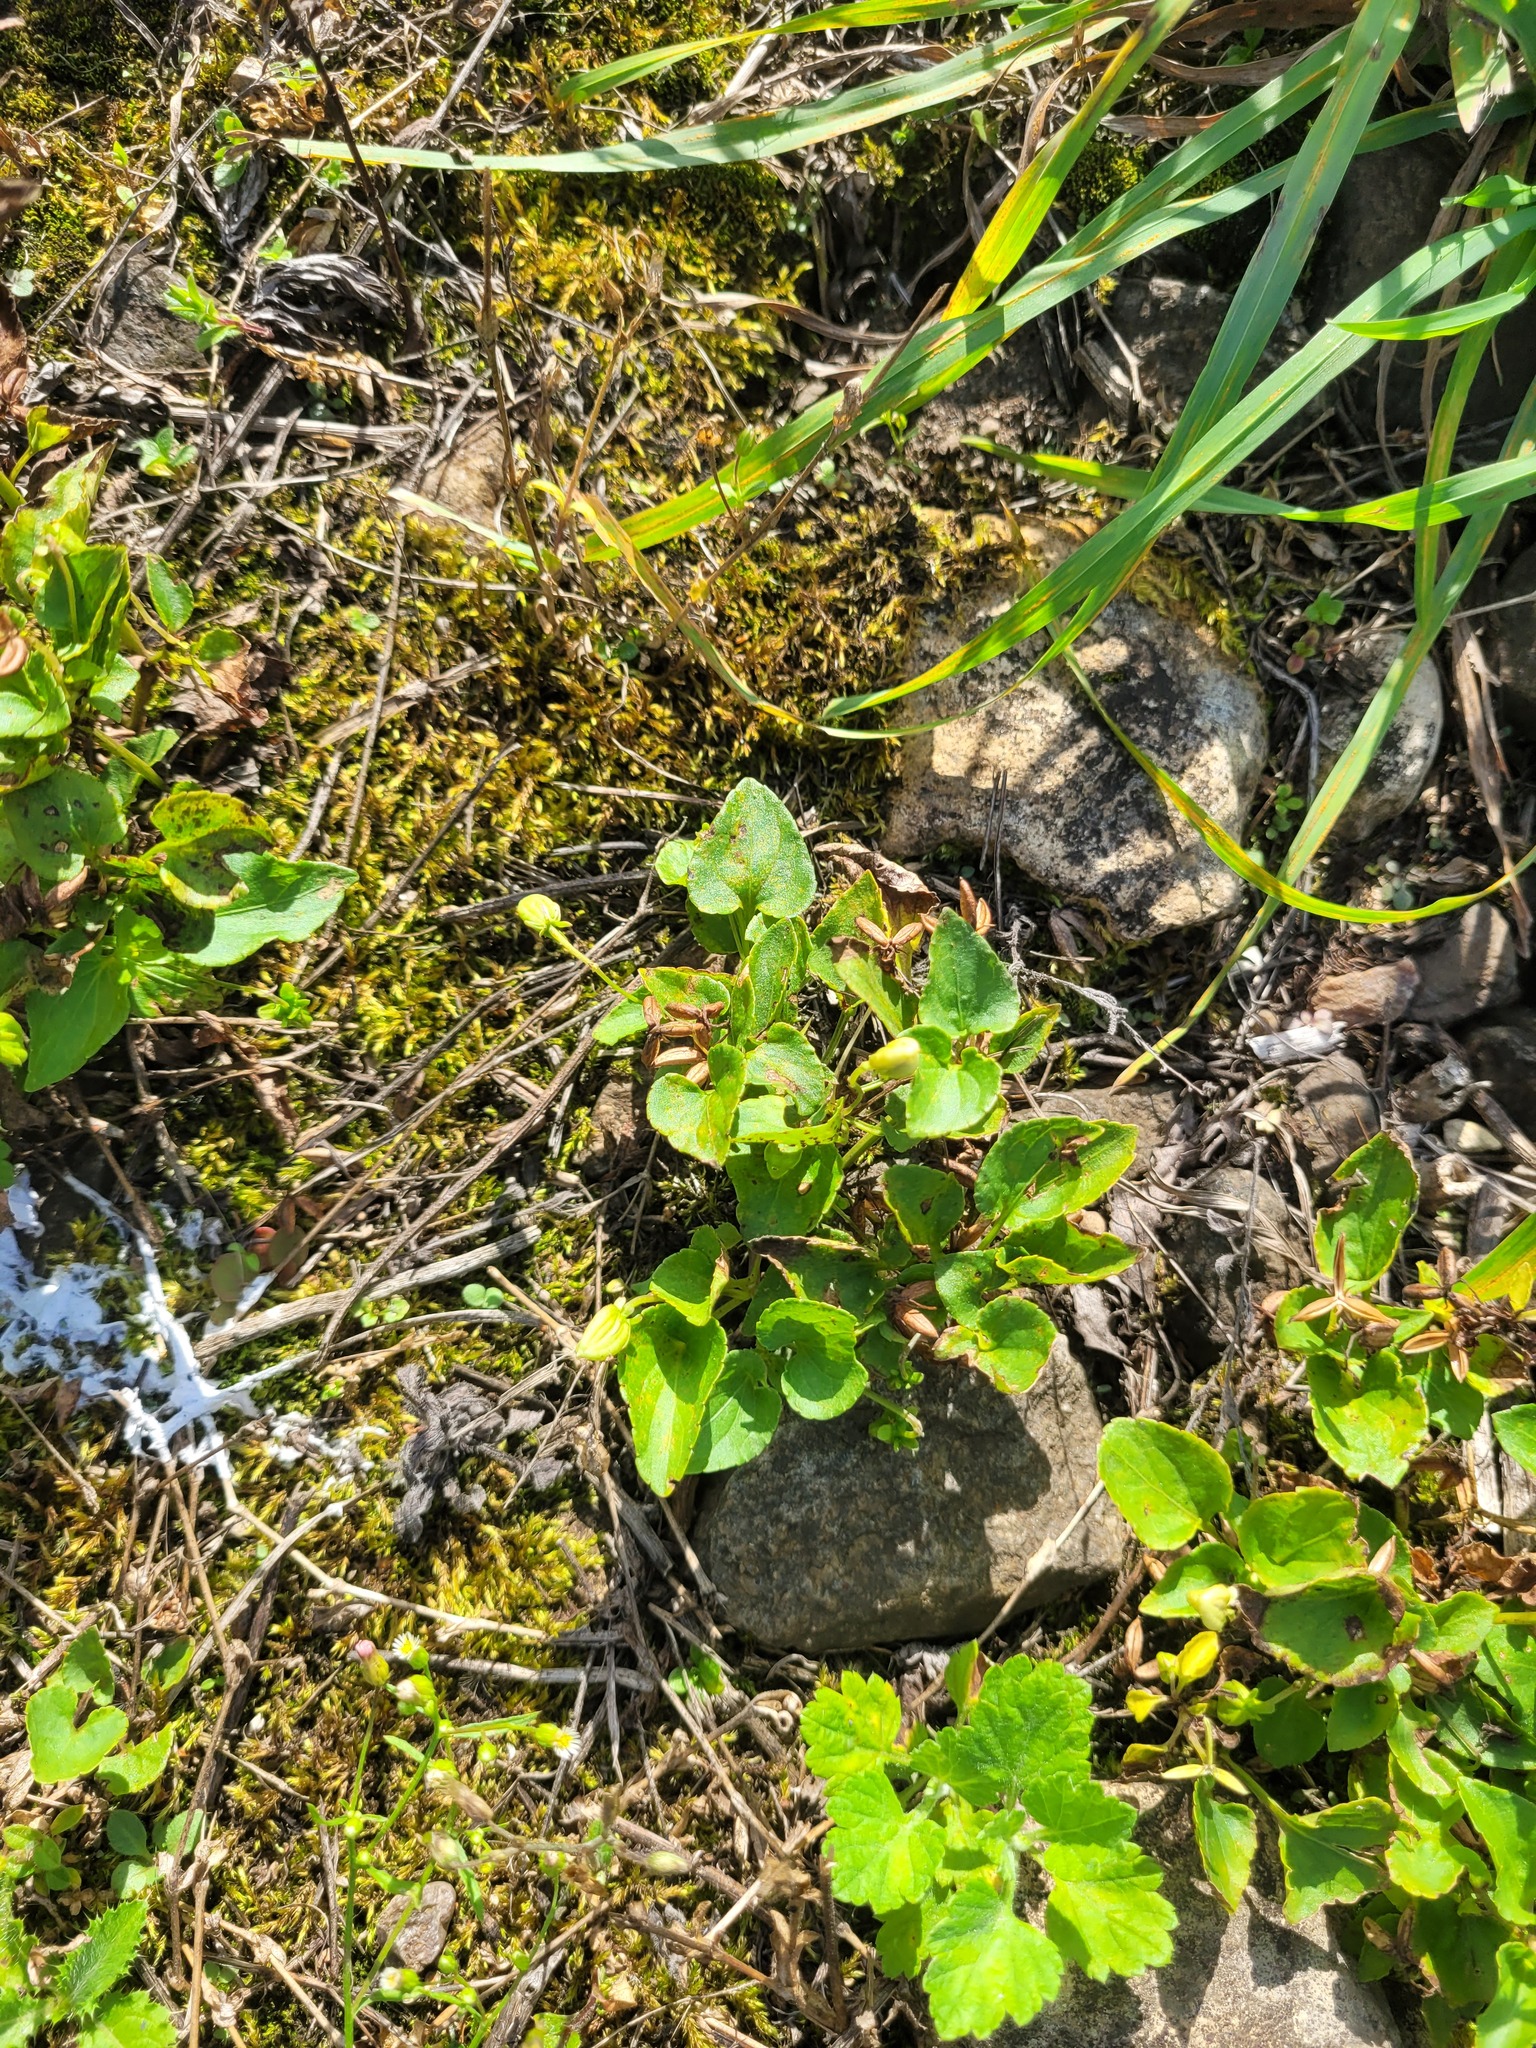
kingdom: Plantae
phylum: Tracheophyta
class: Magnoliopsida
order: Malpighiales
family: Violaceae
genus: Viola
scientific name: Viola canina
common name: Heath dog-violet
